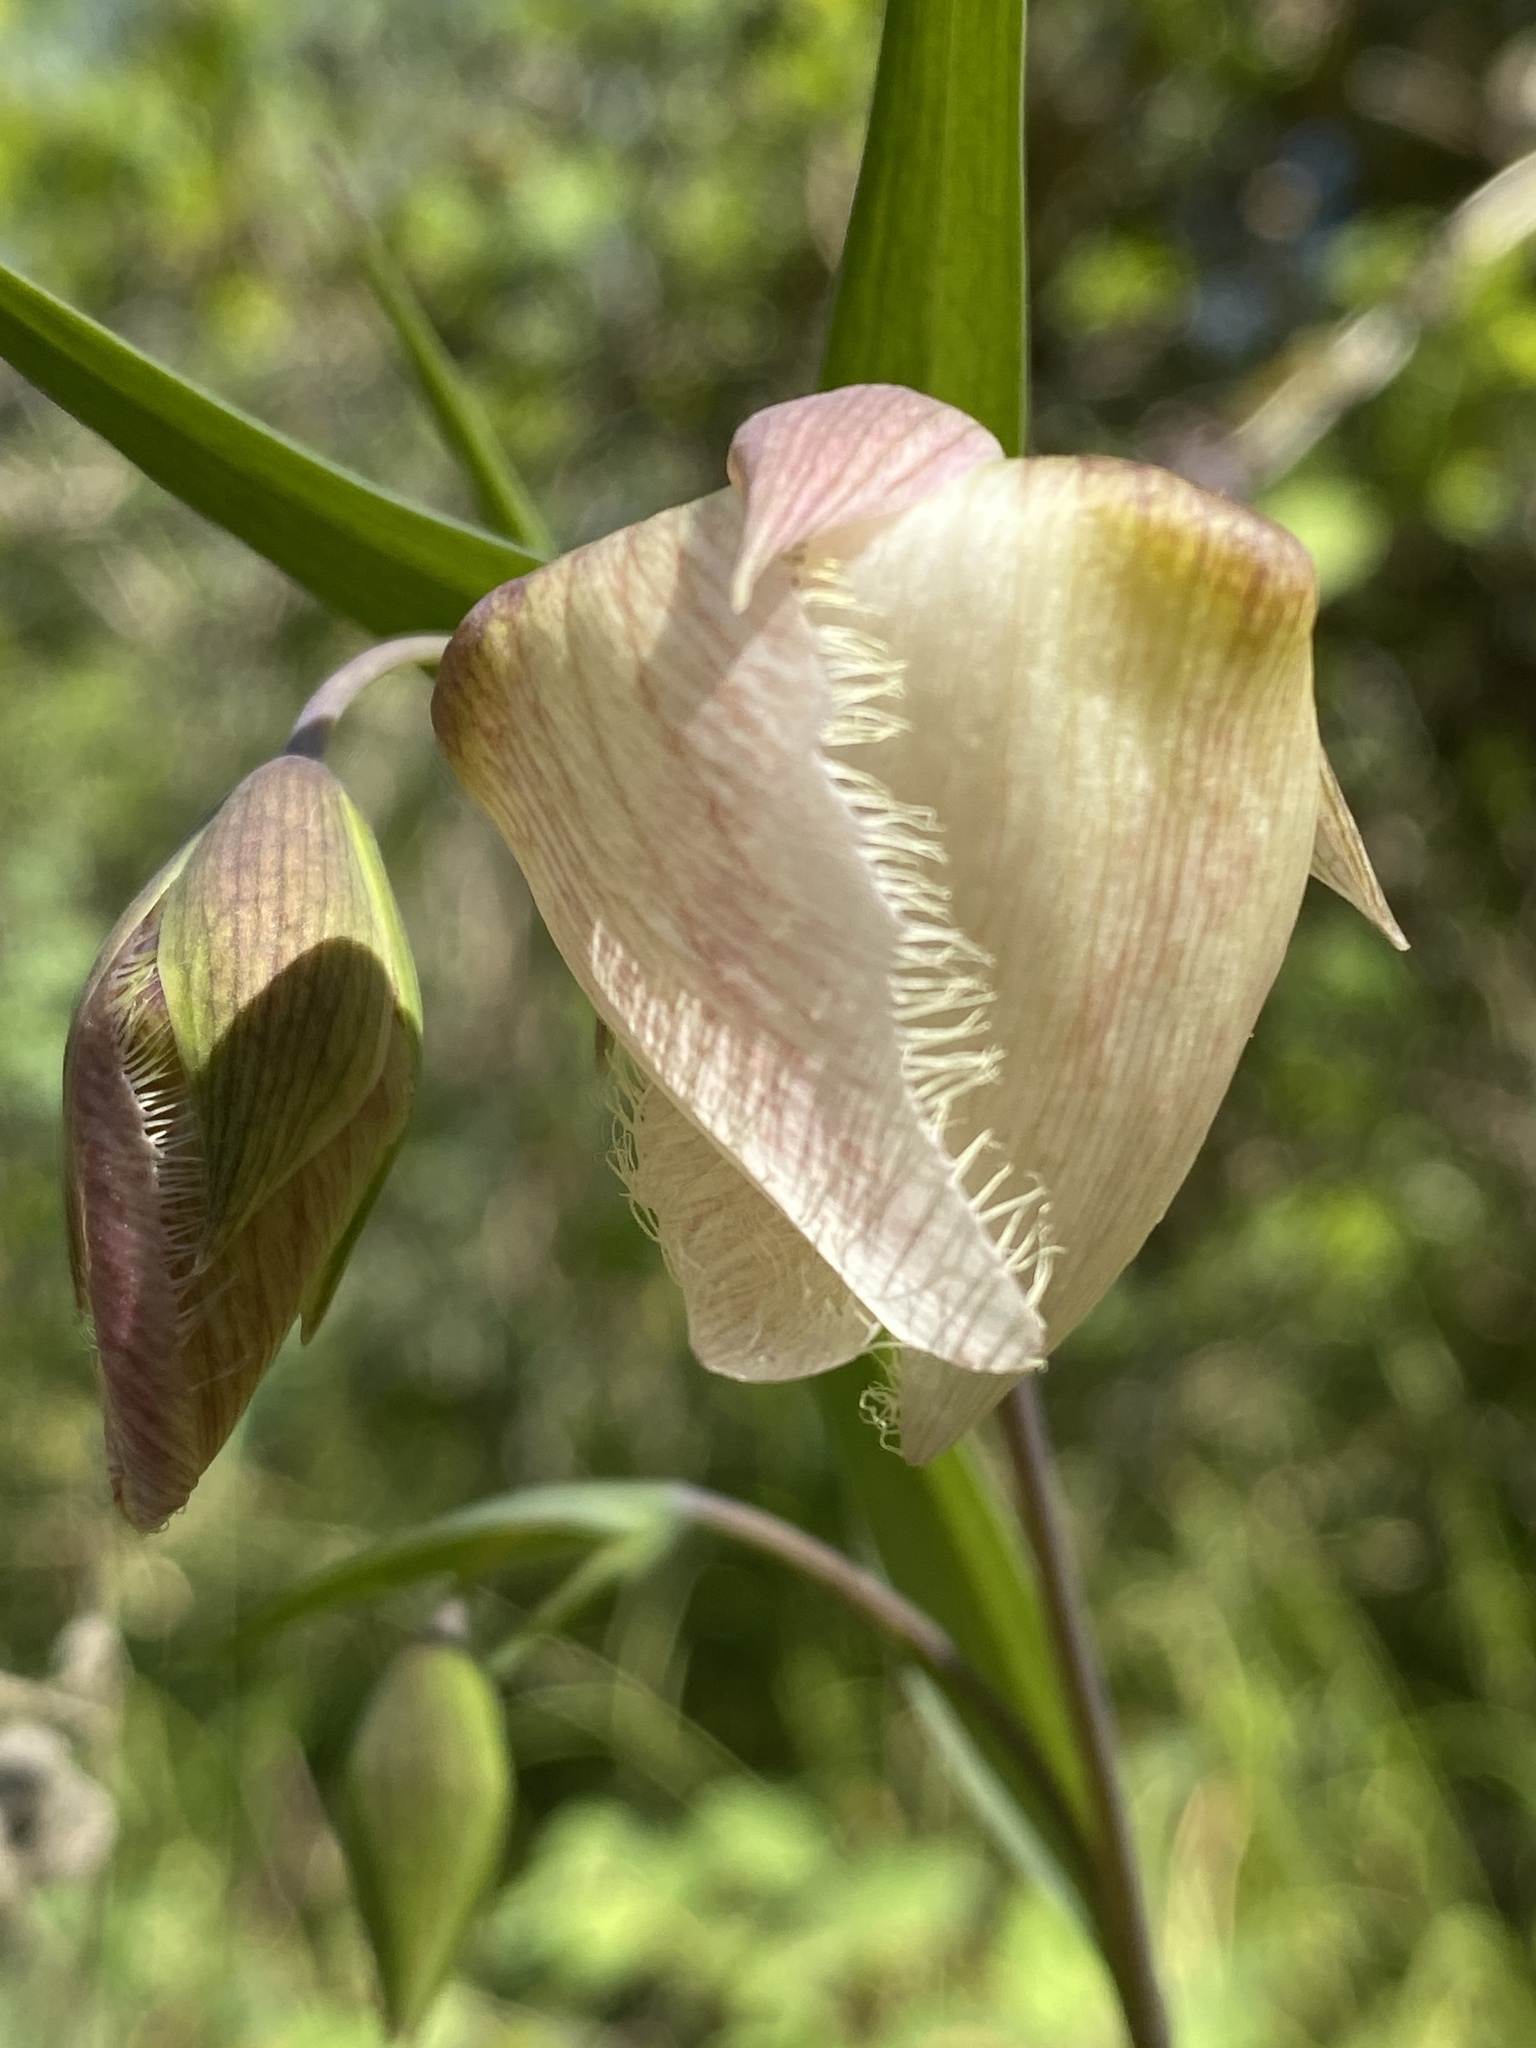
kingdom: Plantae
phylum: Tracheophyta
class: Liliopsida
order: Liliales
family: Liliaceae
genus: Calochortus
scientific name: Calochortus albus
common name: Fairy-lantern
